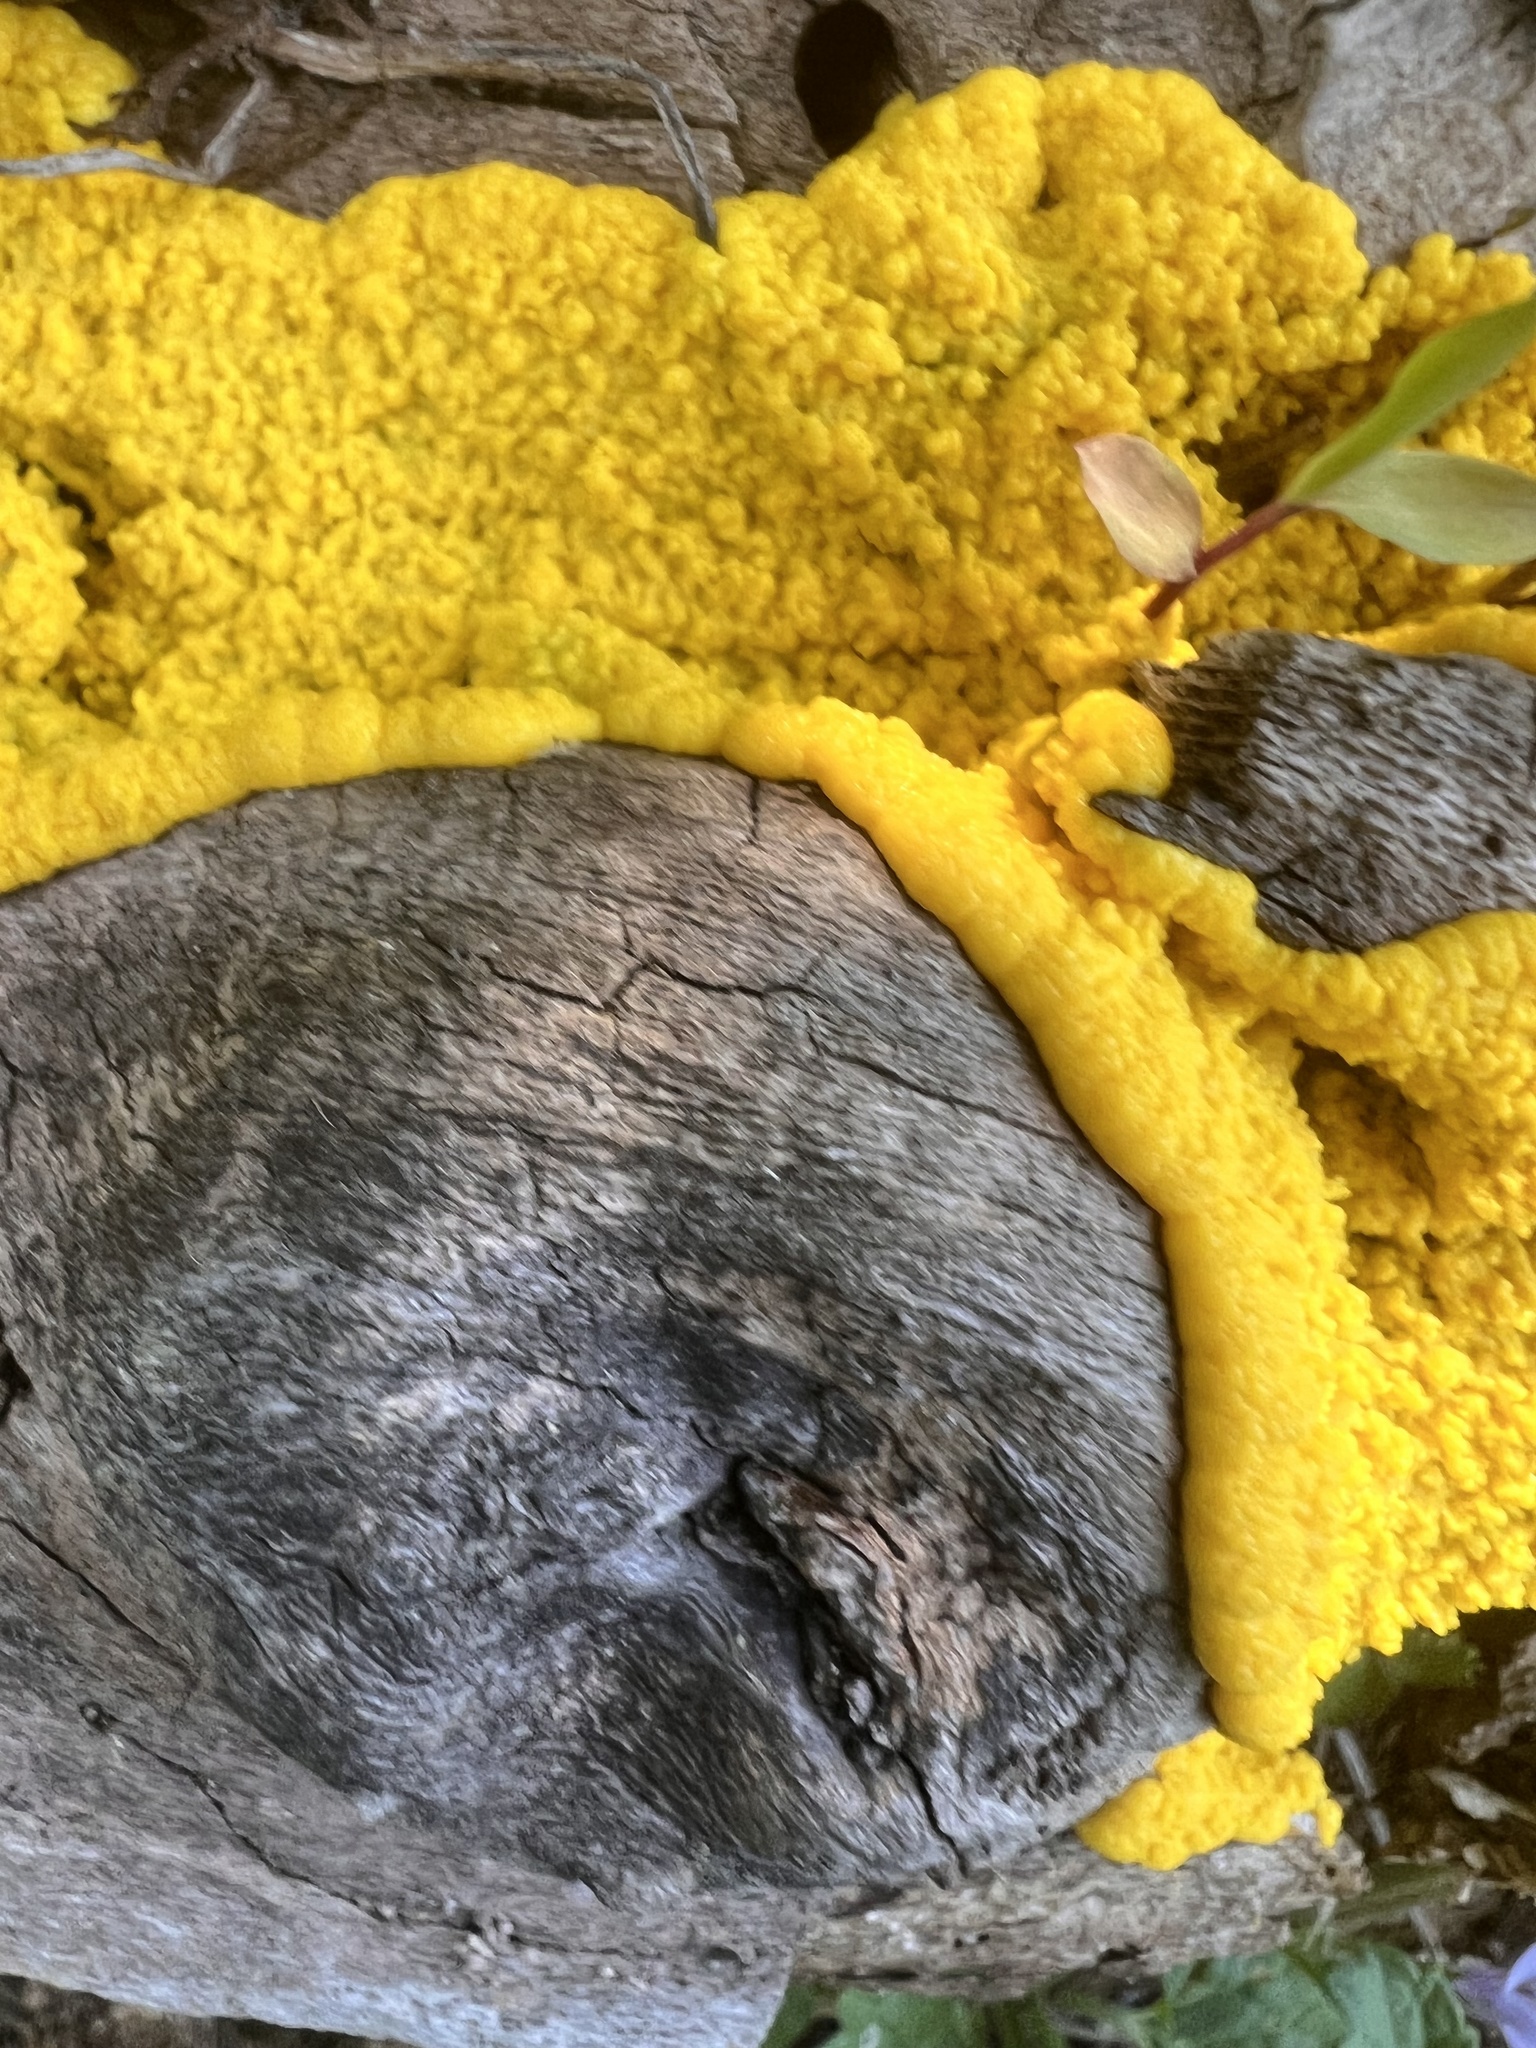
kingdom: Protozoa
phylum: Mycetozoa
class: Myxomycetes
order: Physarales
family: Physaraceae
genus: Fuligo
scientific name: Fuligo septica
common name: Dog vomit slime mold
